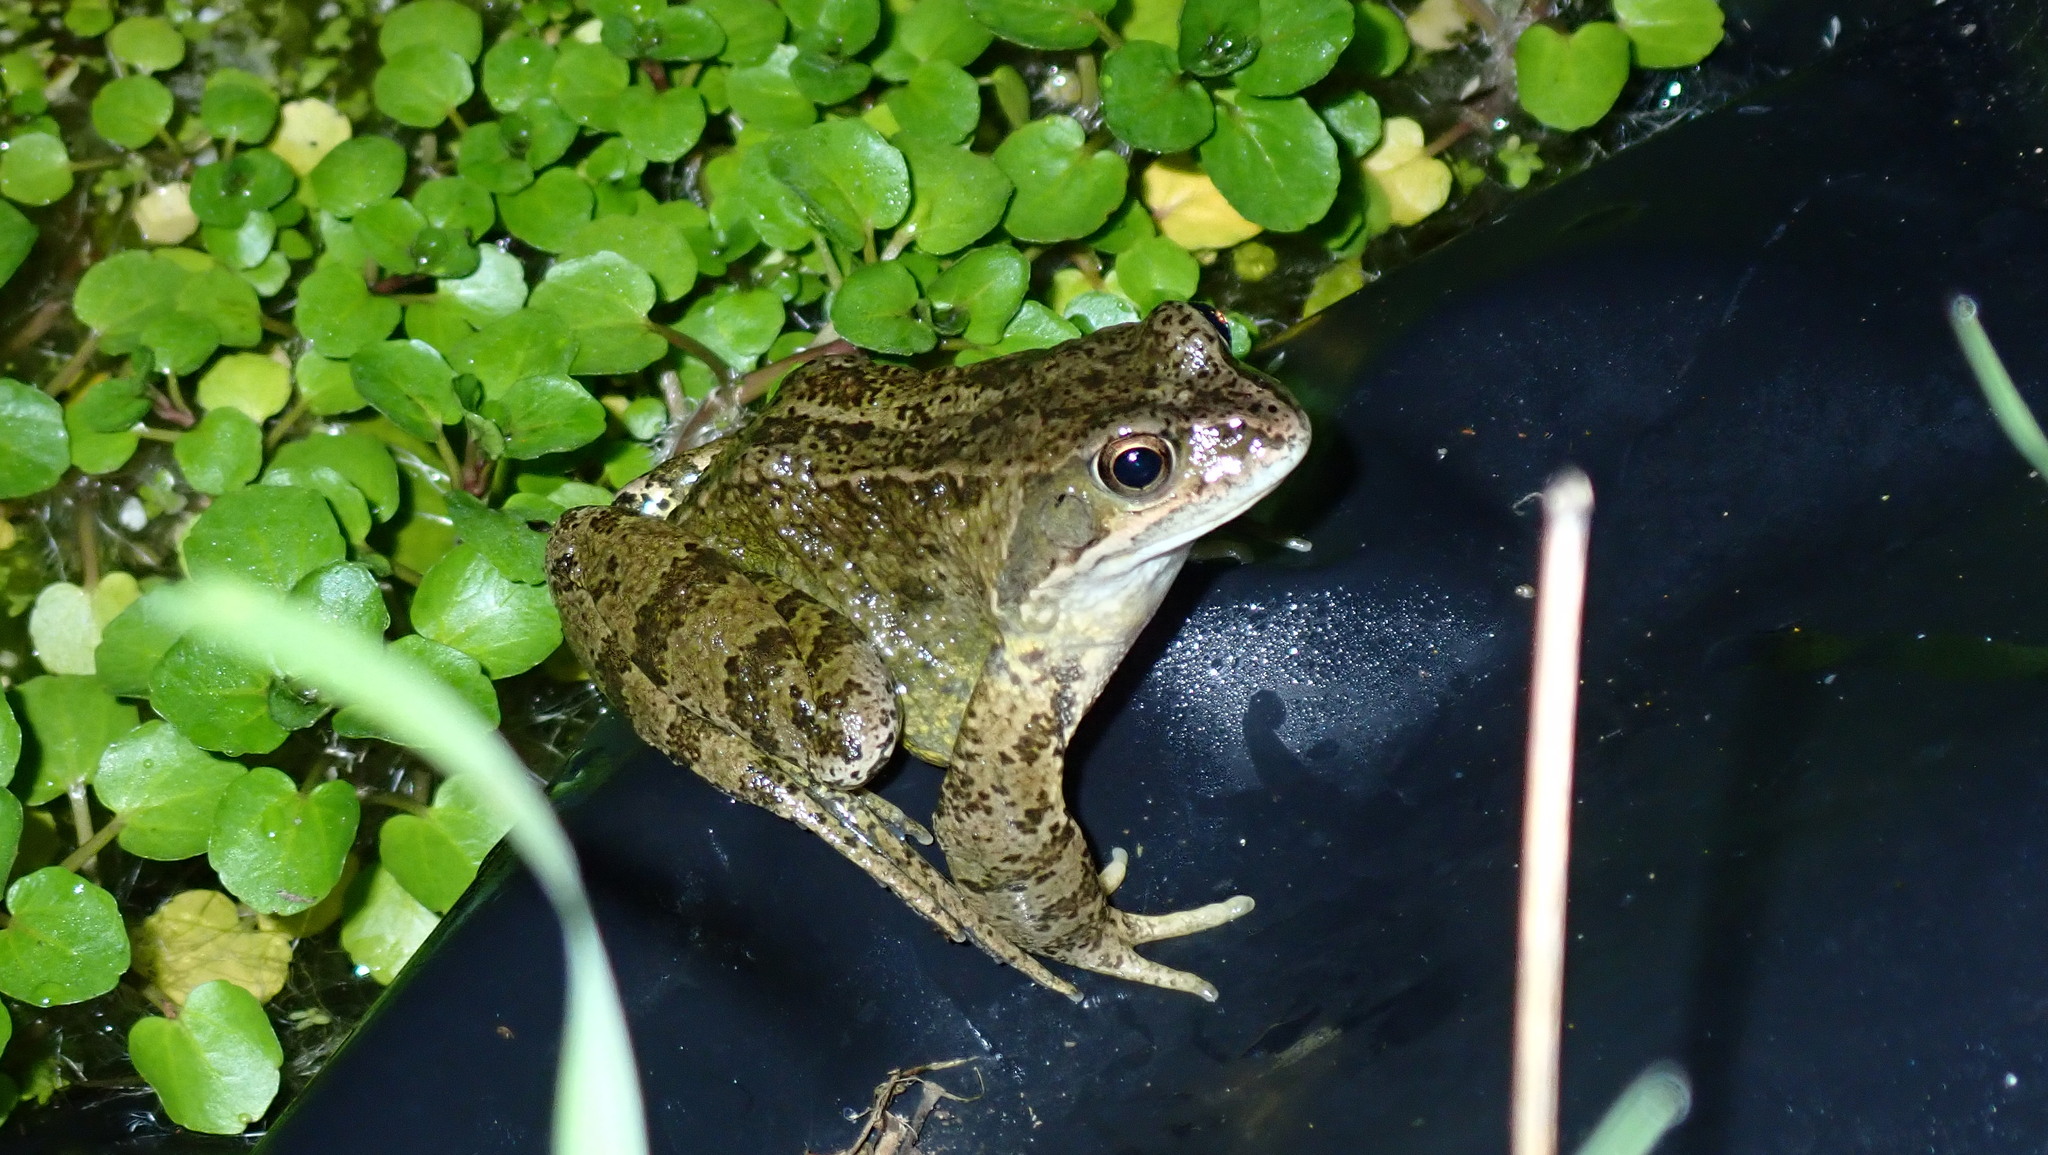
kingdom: Animalia
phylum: Chordata
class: Amphibia
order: Anura
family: Ranidae
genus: Rana
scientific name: Rana temporaria
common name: Common frog
